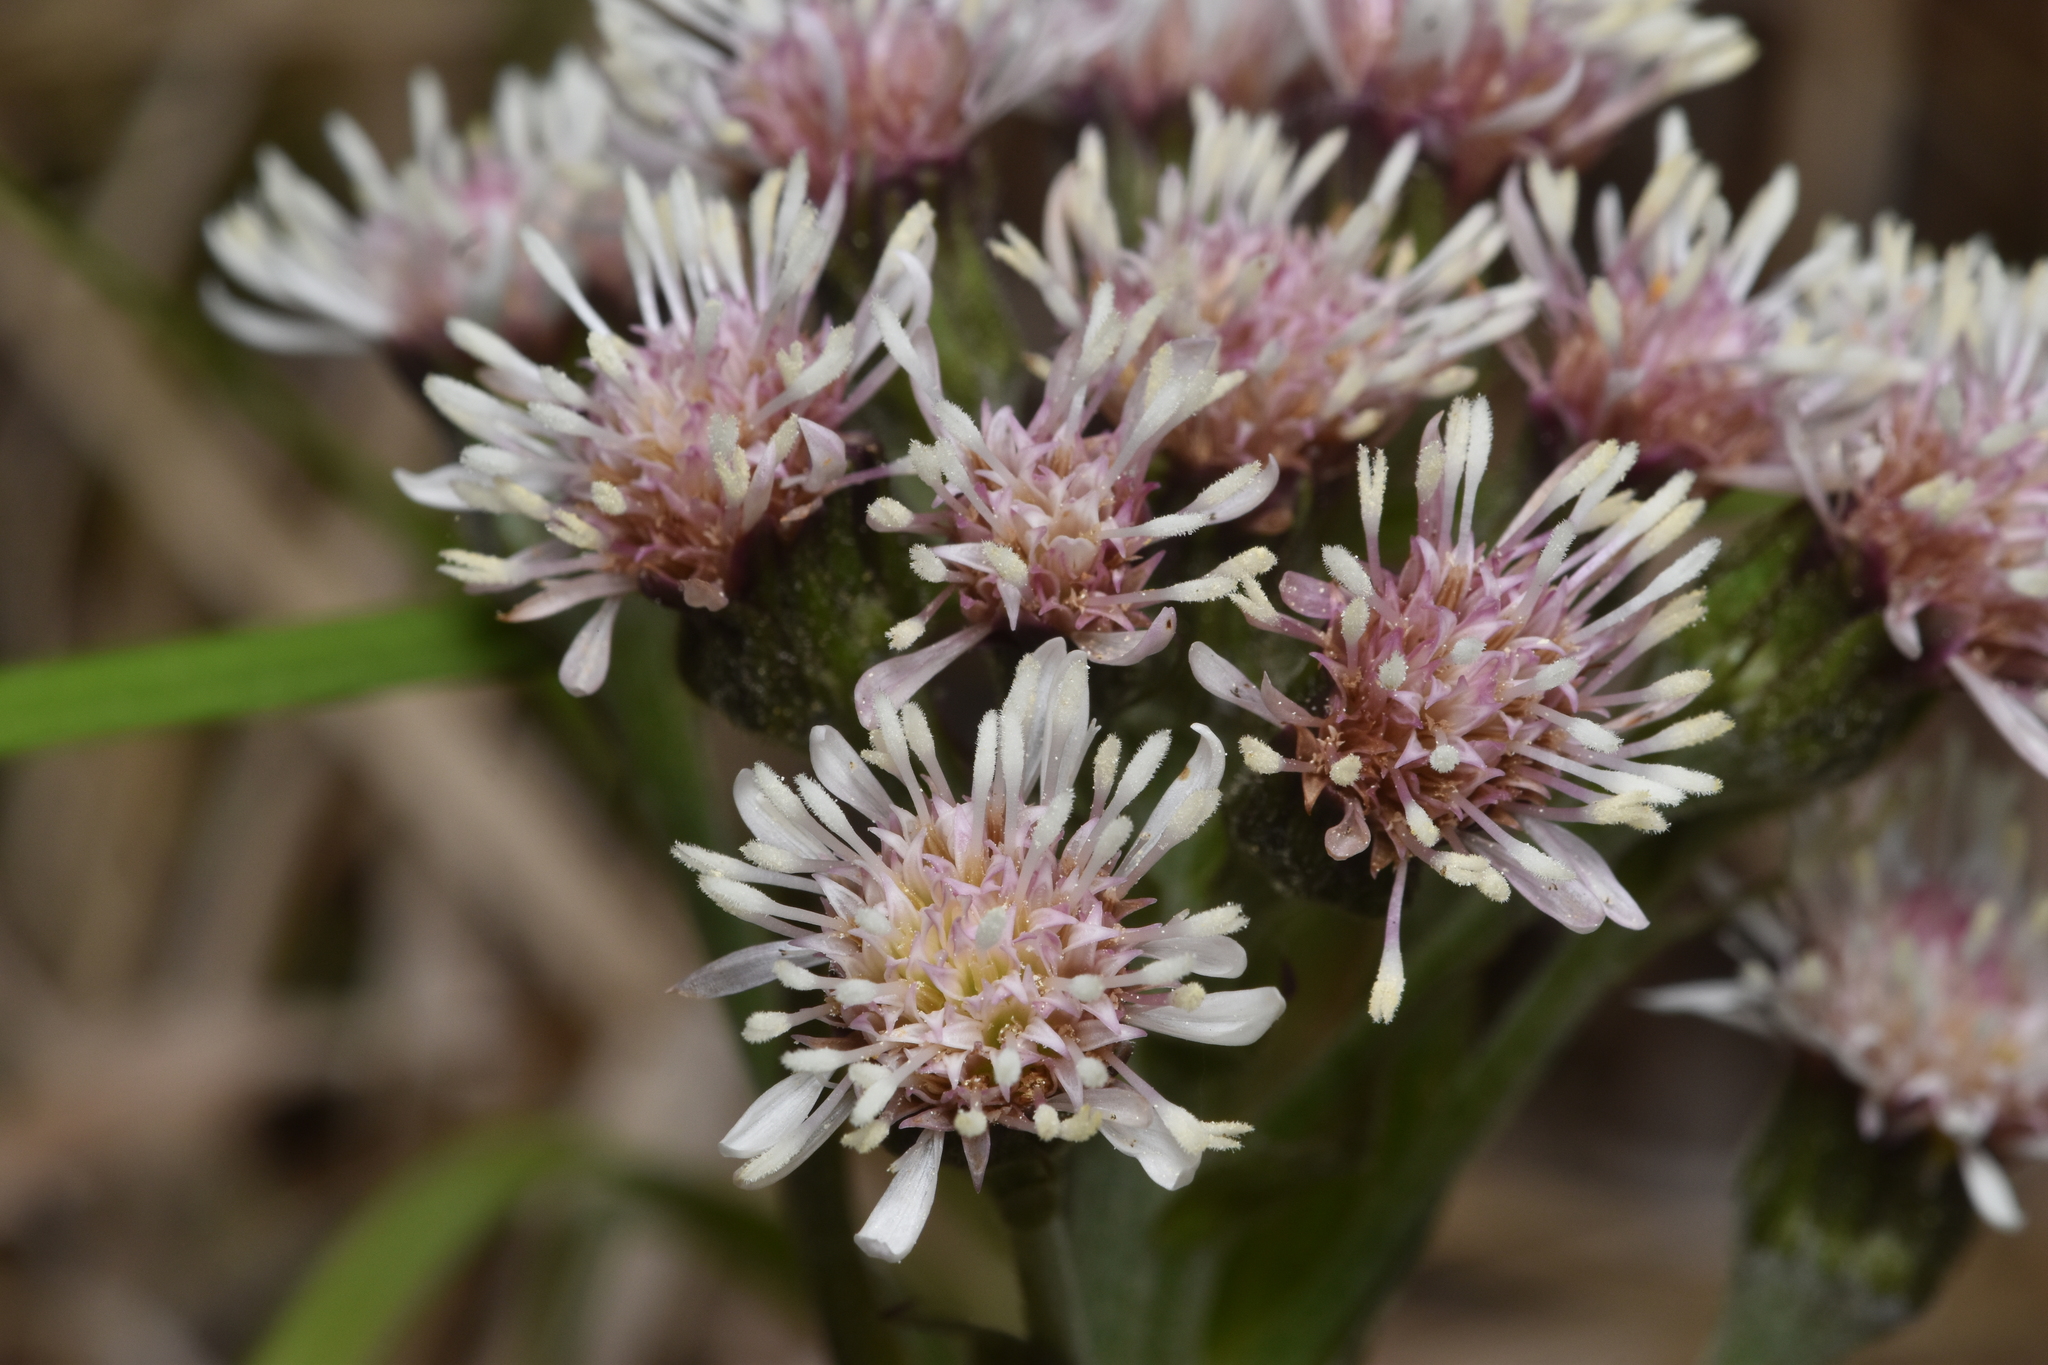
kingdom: Plantae
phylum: Tracheophyta
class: Magnoliopsida
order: Asterales
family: Asteraceae
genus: Petasites
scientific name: Petasites frigidus
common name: Arctic butterbur
